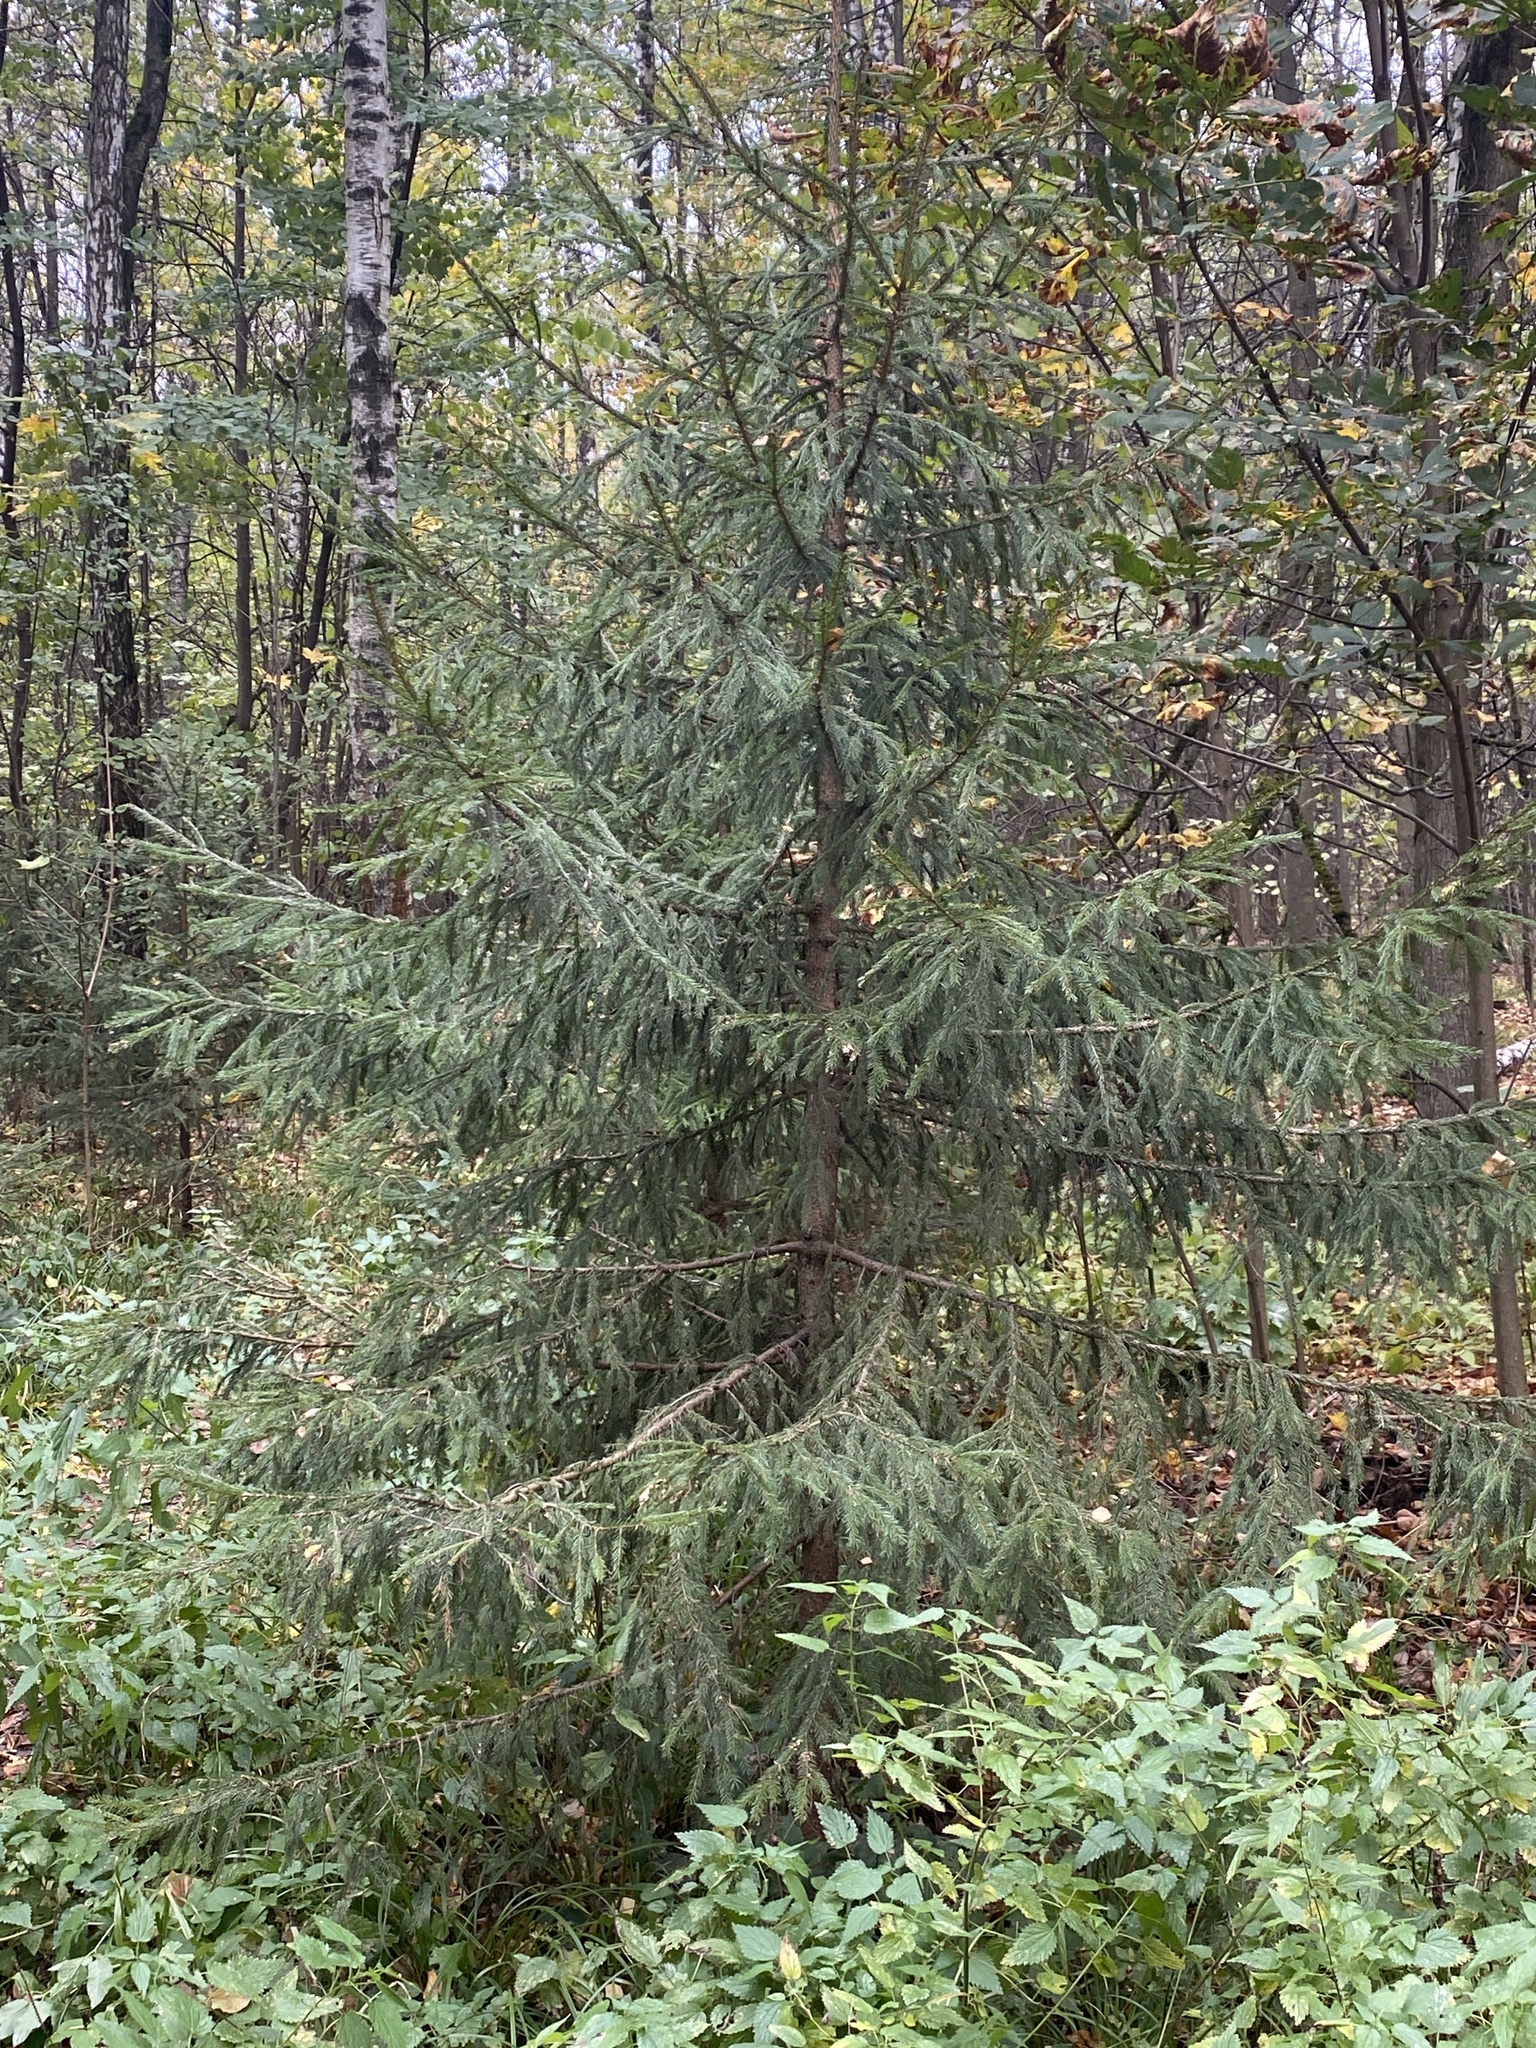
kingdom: Plantae
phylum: Tracheophyta
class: Pinopsida
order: Pinales
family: Pinaceae
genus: Picea
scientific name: Picea abies
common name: Norway spruce
